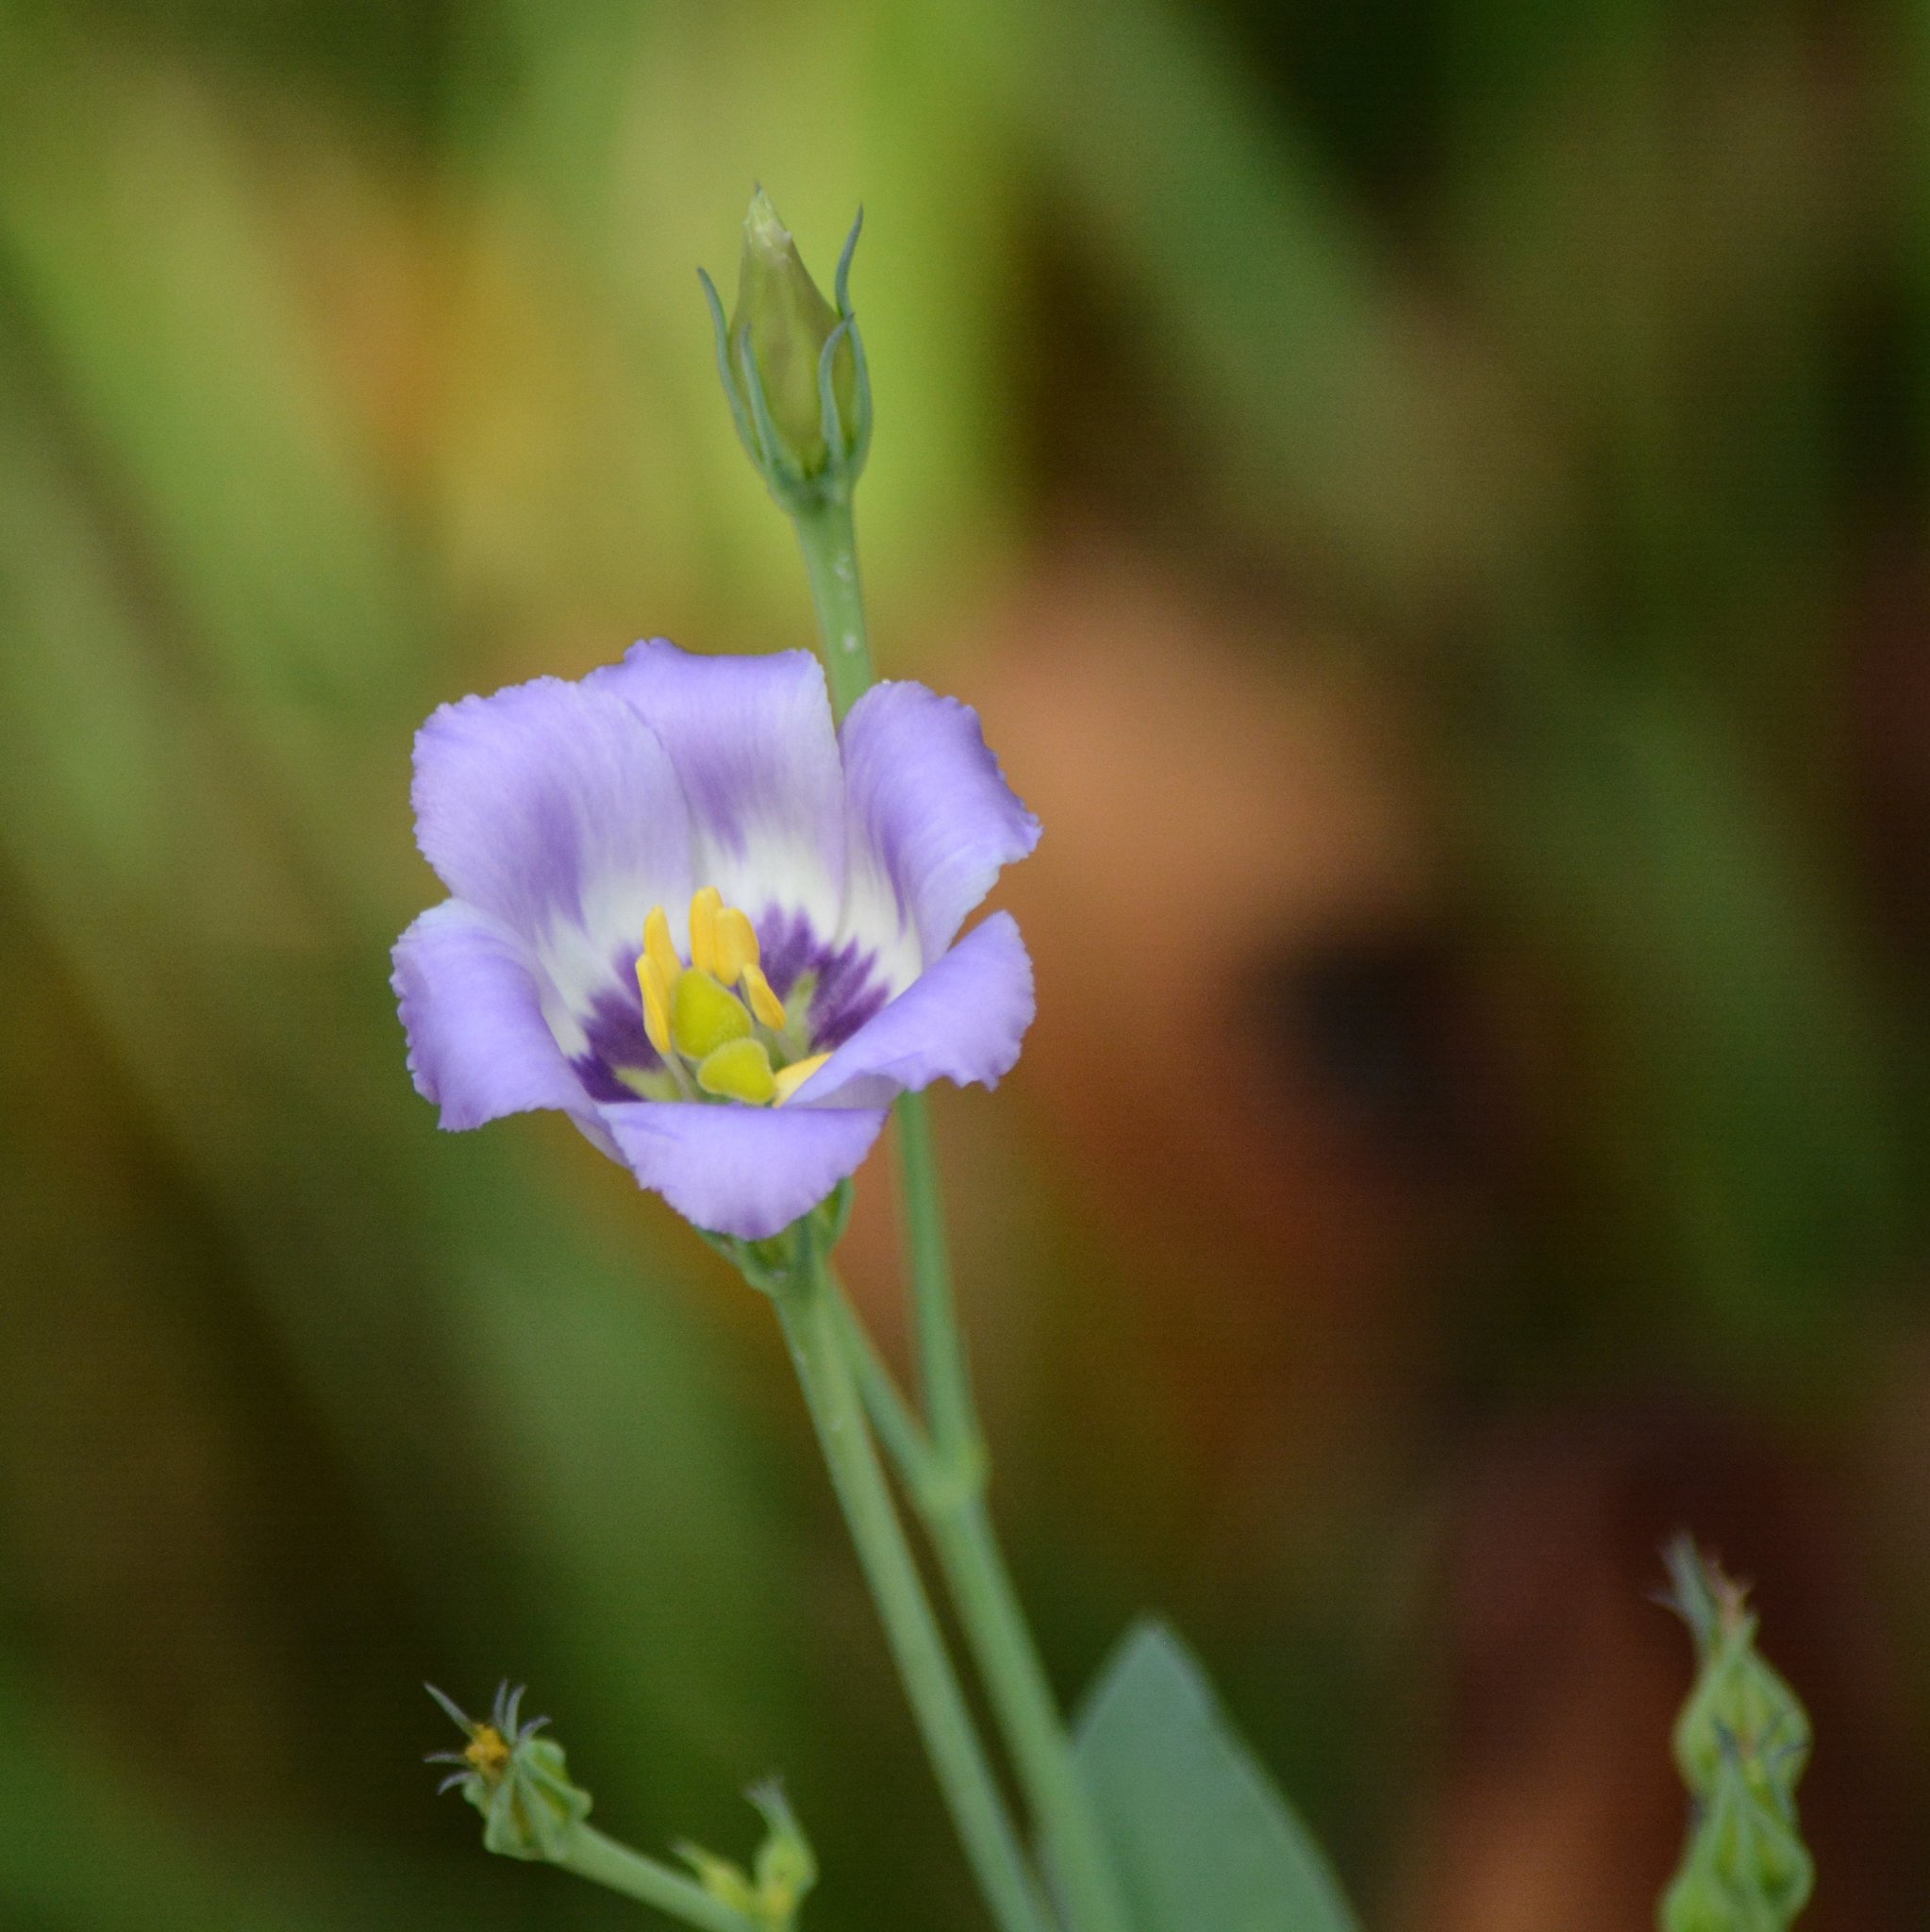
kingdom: Plantae
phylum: Tracheophyta
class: Magnoliopsida
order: Gentianales
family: Gentianaceae
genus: Eustoma
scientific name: Eustoma exaltatum
